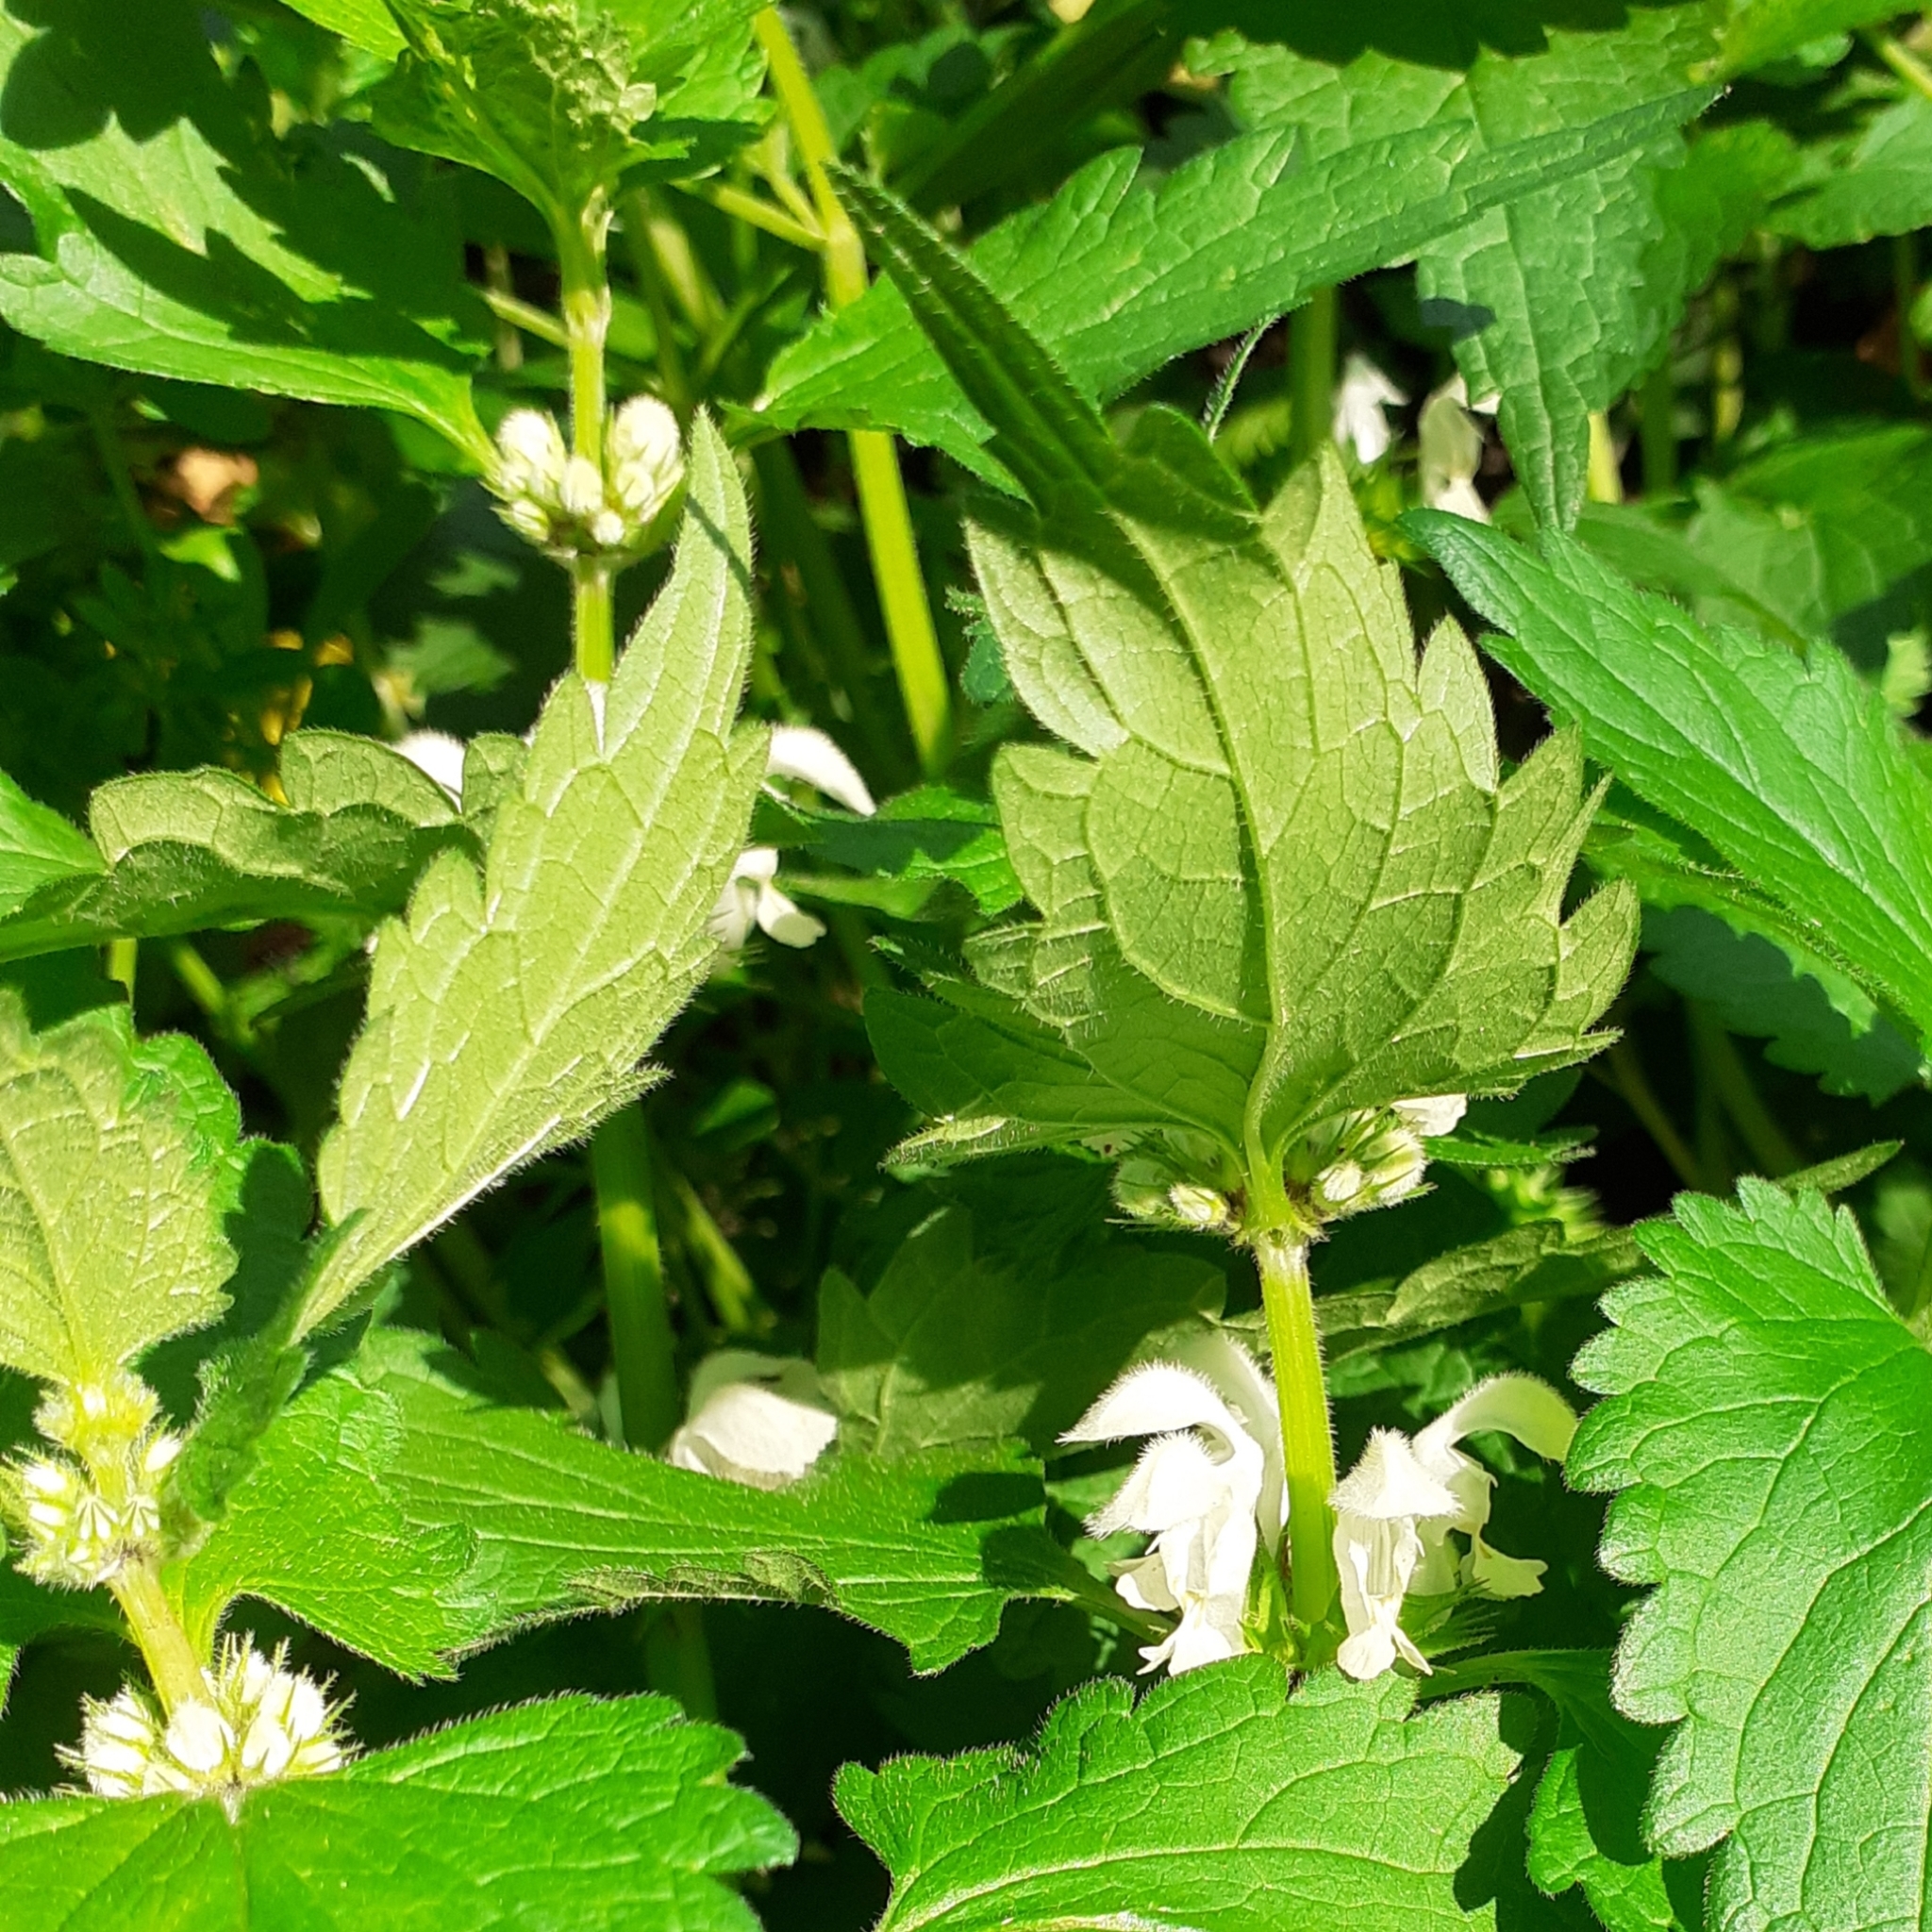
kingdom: Plantae
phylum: Tracheophyta
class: Magnoliopsida
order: Lamiales
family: Lamiaceae
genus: Lamium
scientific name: Lamium album
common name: White dead-nettle
